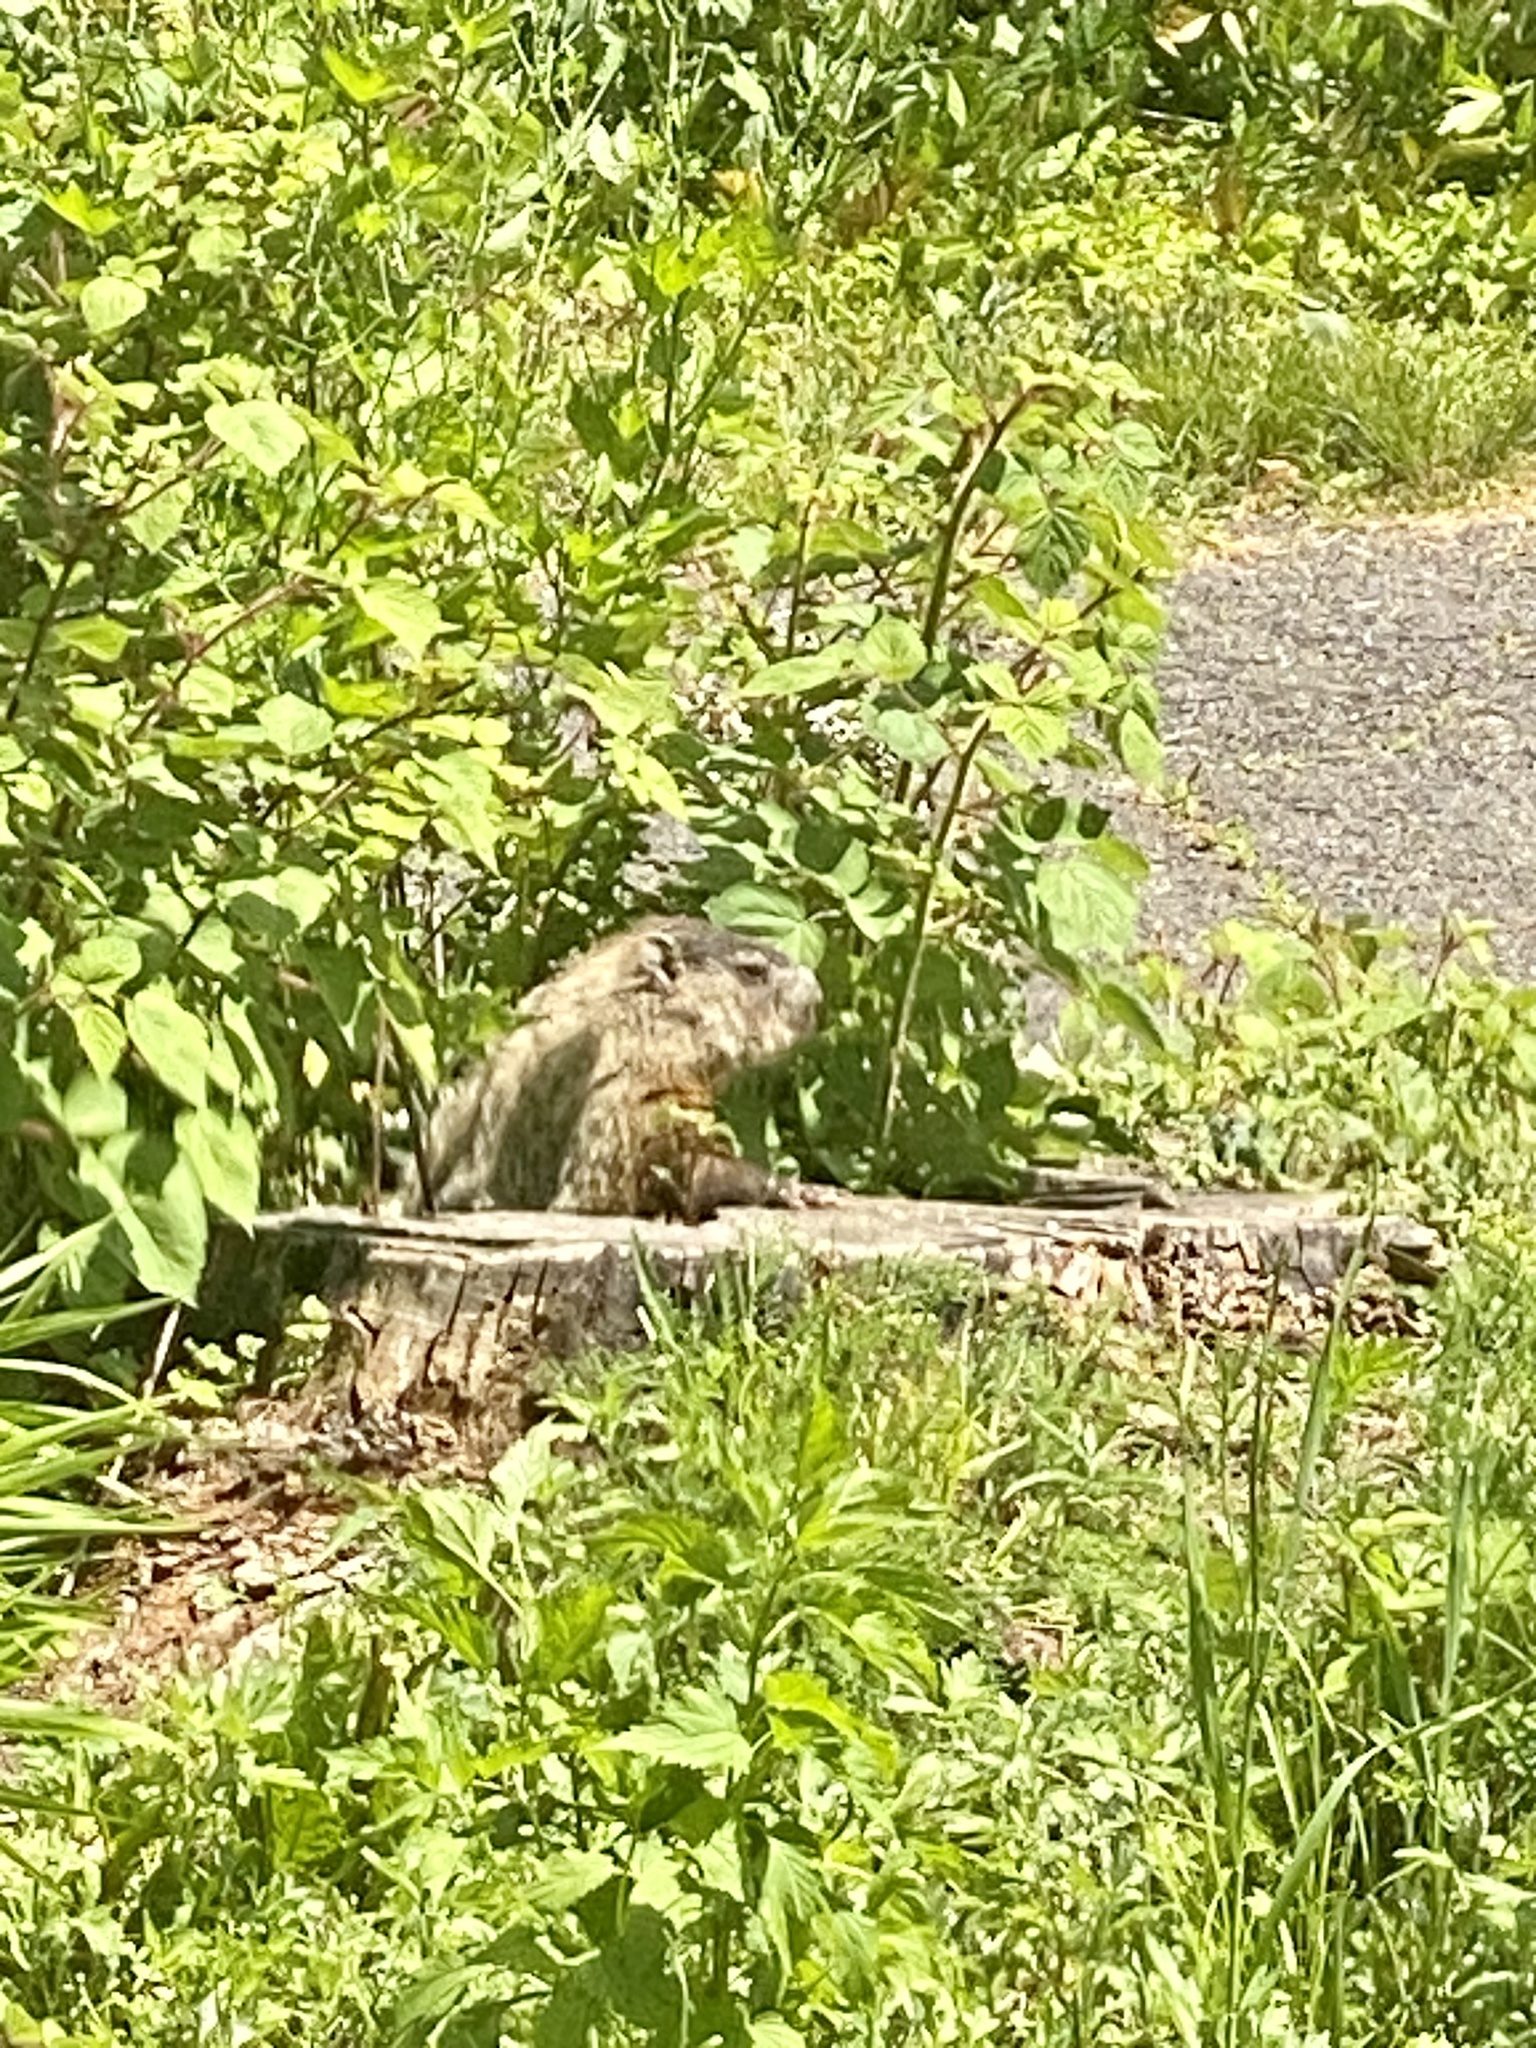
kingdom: Animalia
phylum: Chordata
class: Mammalia
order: Rodentia
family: Sciuridae
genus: Marmota
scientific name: Marmota monax
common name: Groundhog
